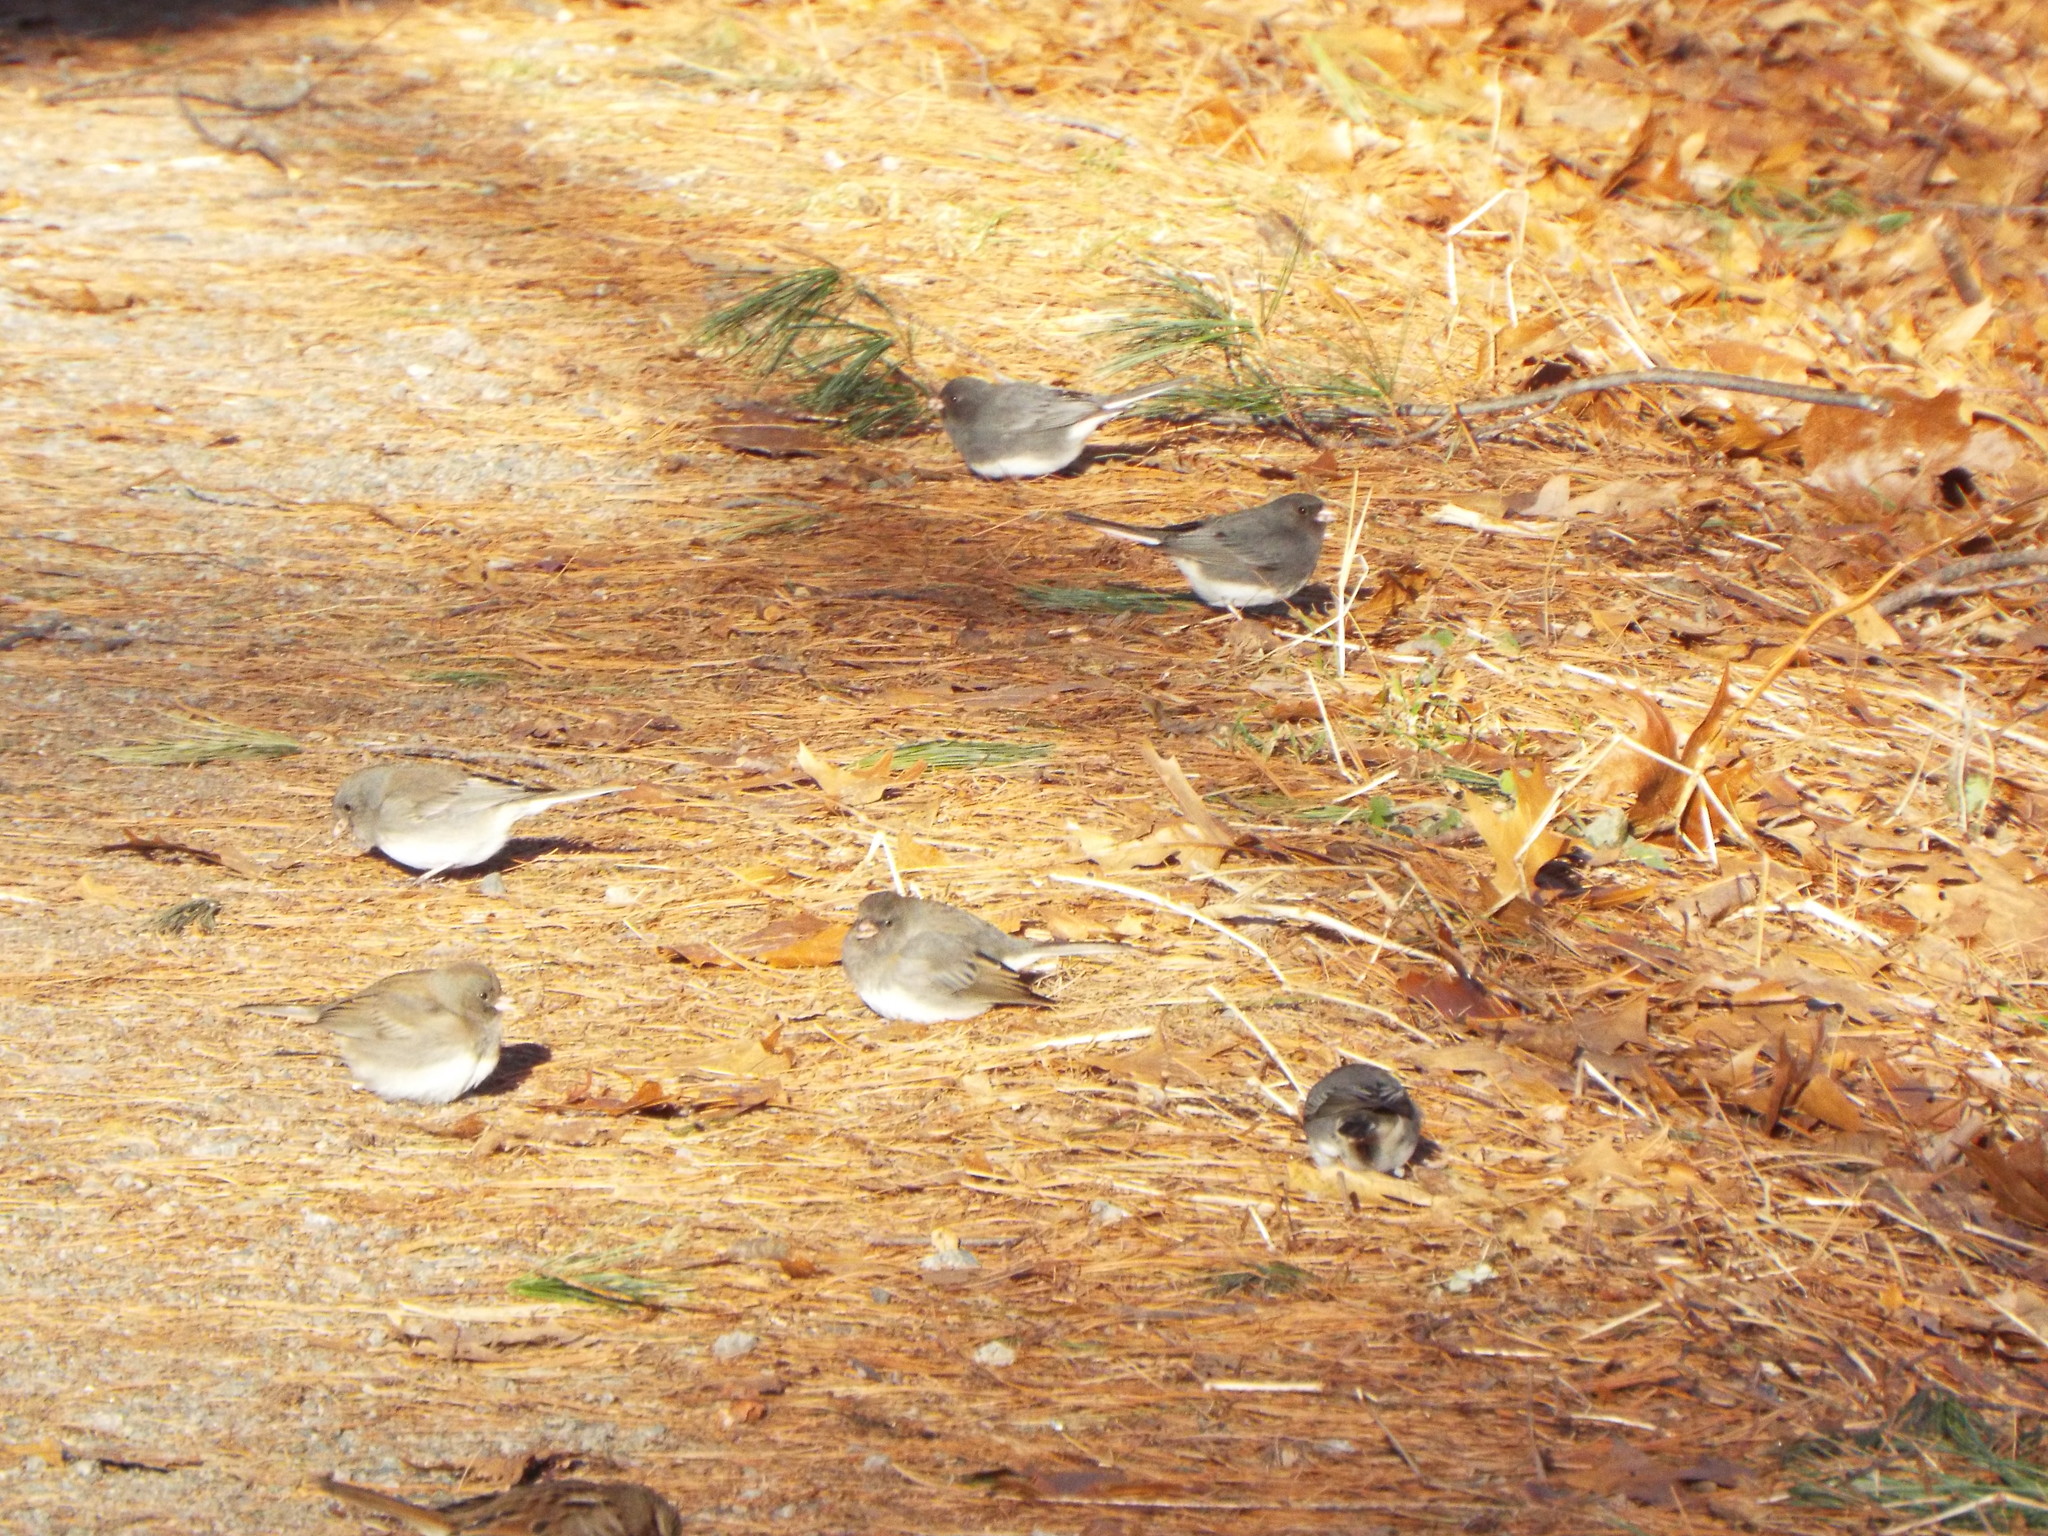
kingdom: Animalia
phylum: Chordata
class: Aves
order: Passeriformes
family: Passerellidae
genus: Junco
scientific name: Junco hyemalis
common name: Dark-eyed junco
